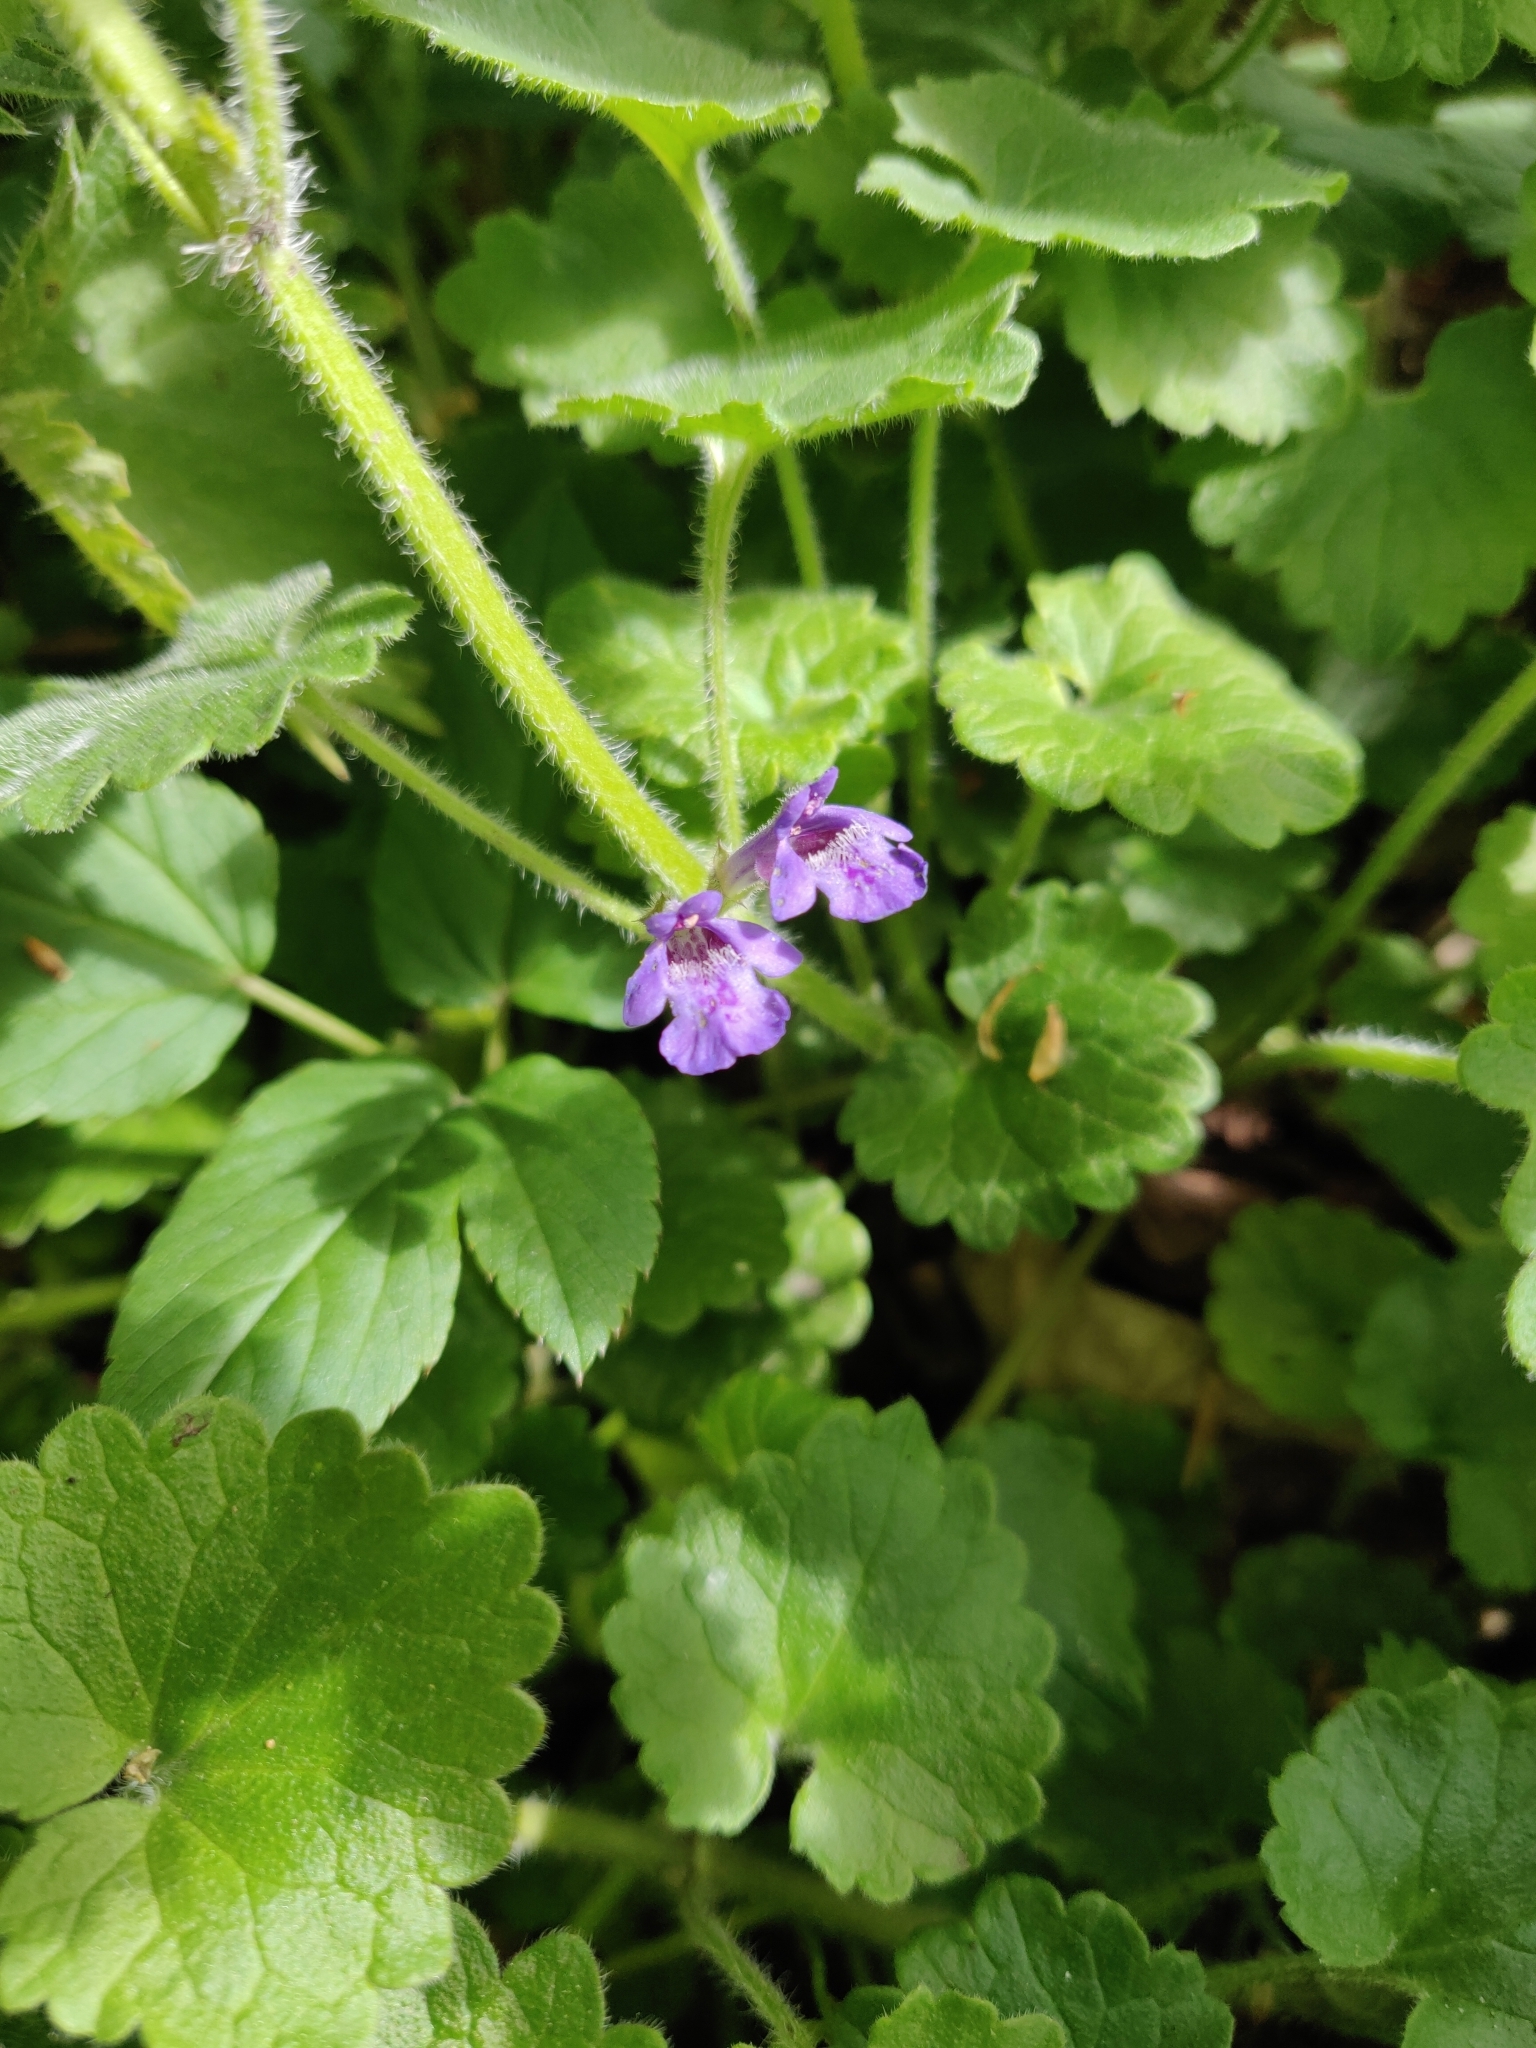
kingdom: Plantae
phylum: Tracheophyta
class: Magnoliopsida
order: Lamiales
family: Lamiaceae
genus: Glechoma
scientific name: Glechoma hederacea
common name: Ground ivy
